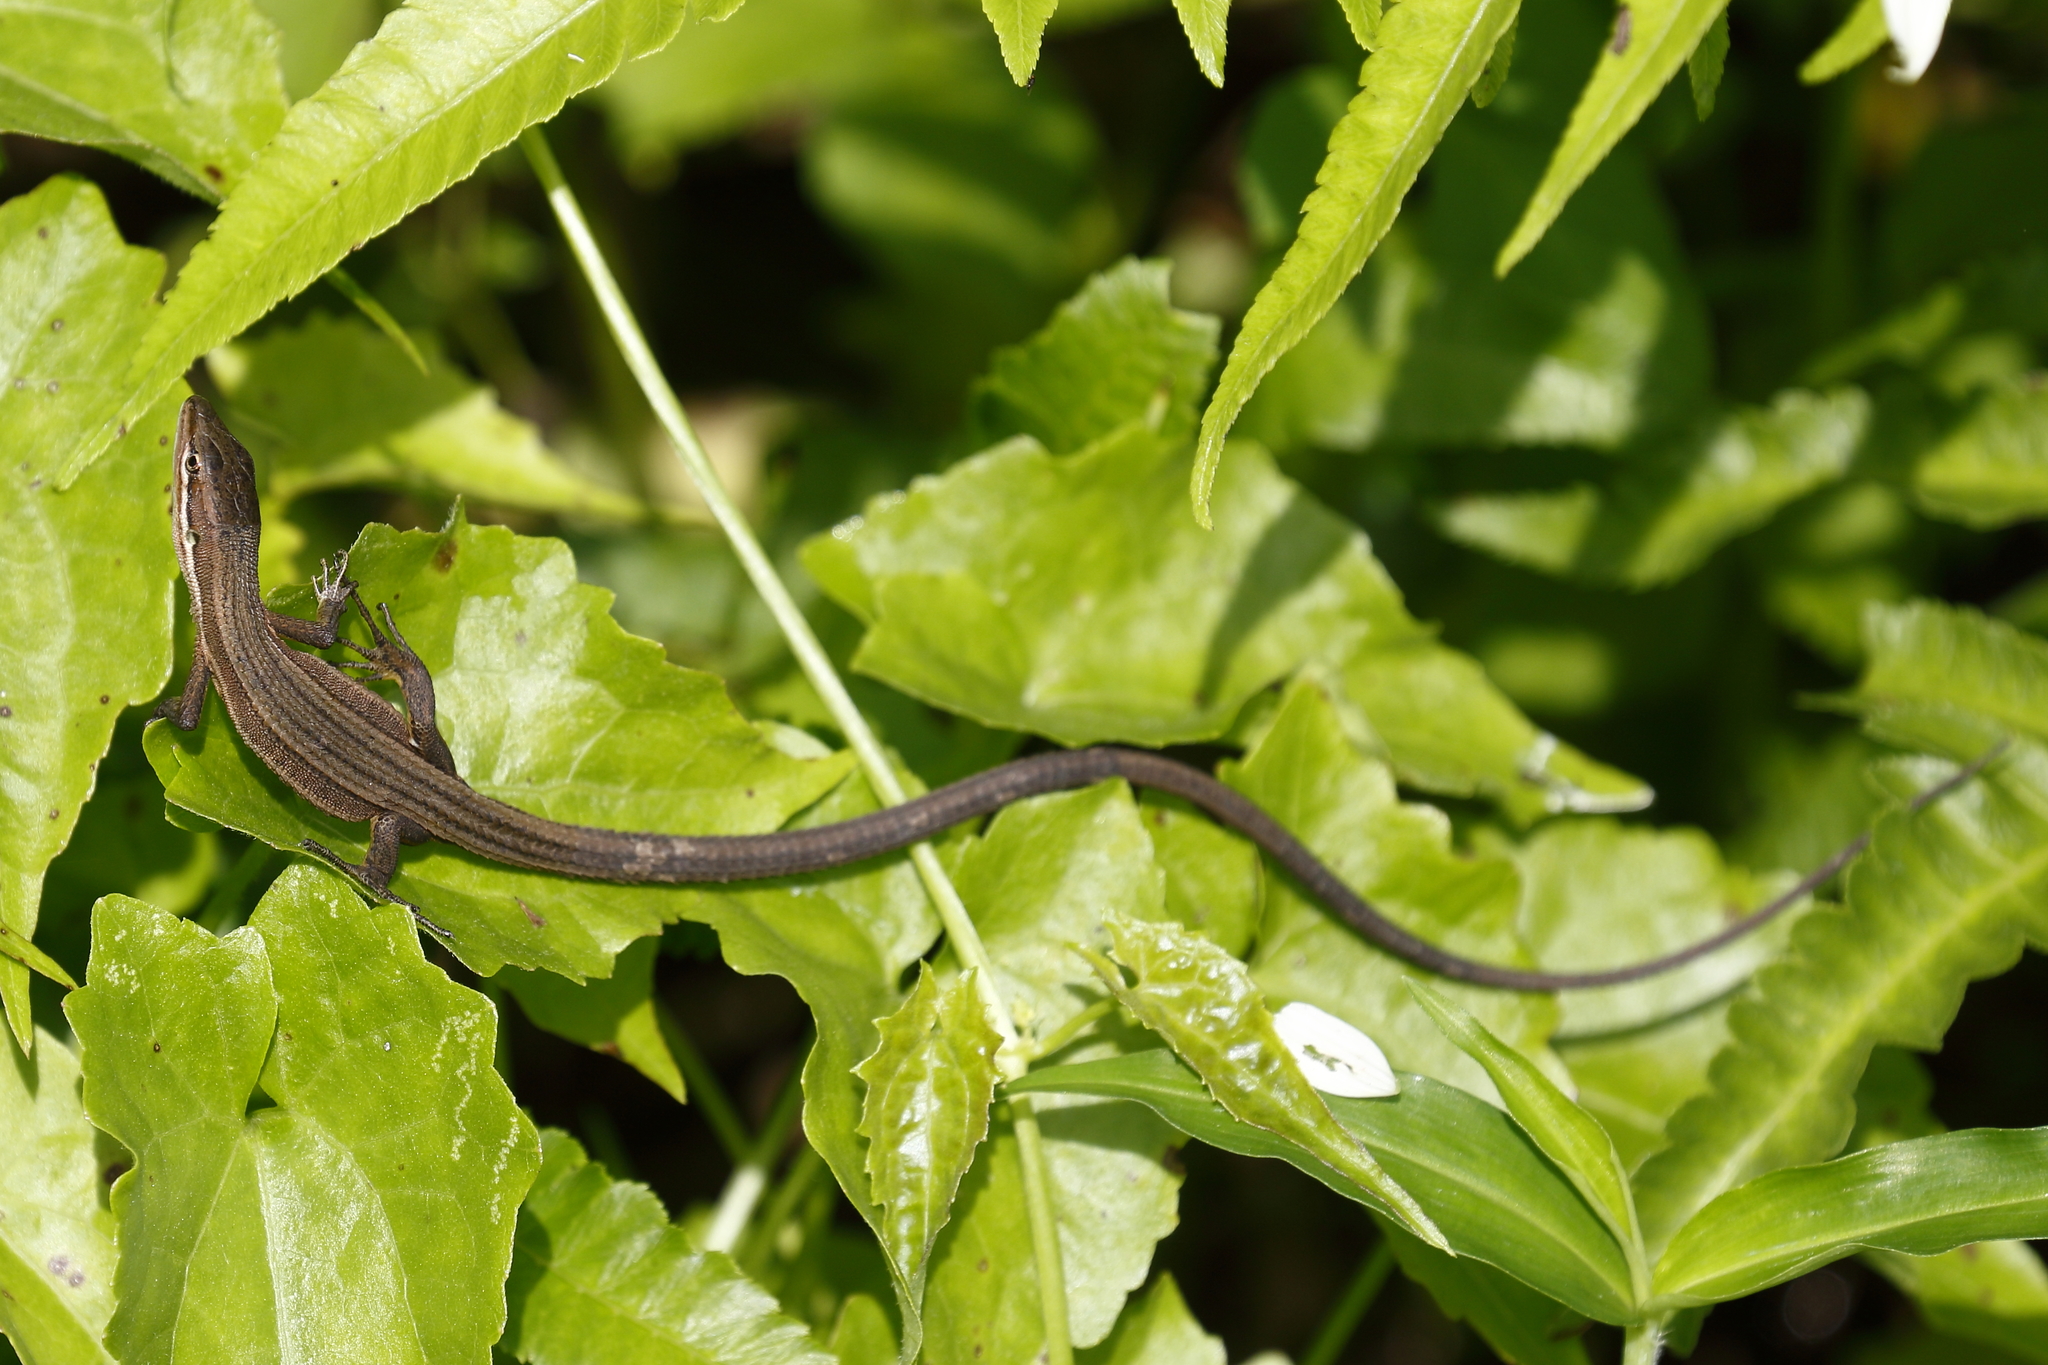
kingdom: Animalia
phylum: Chordata
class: Squamata
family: Lacertidae
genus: Takydromus
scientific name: Takydromus luyeanus
